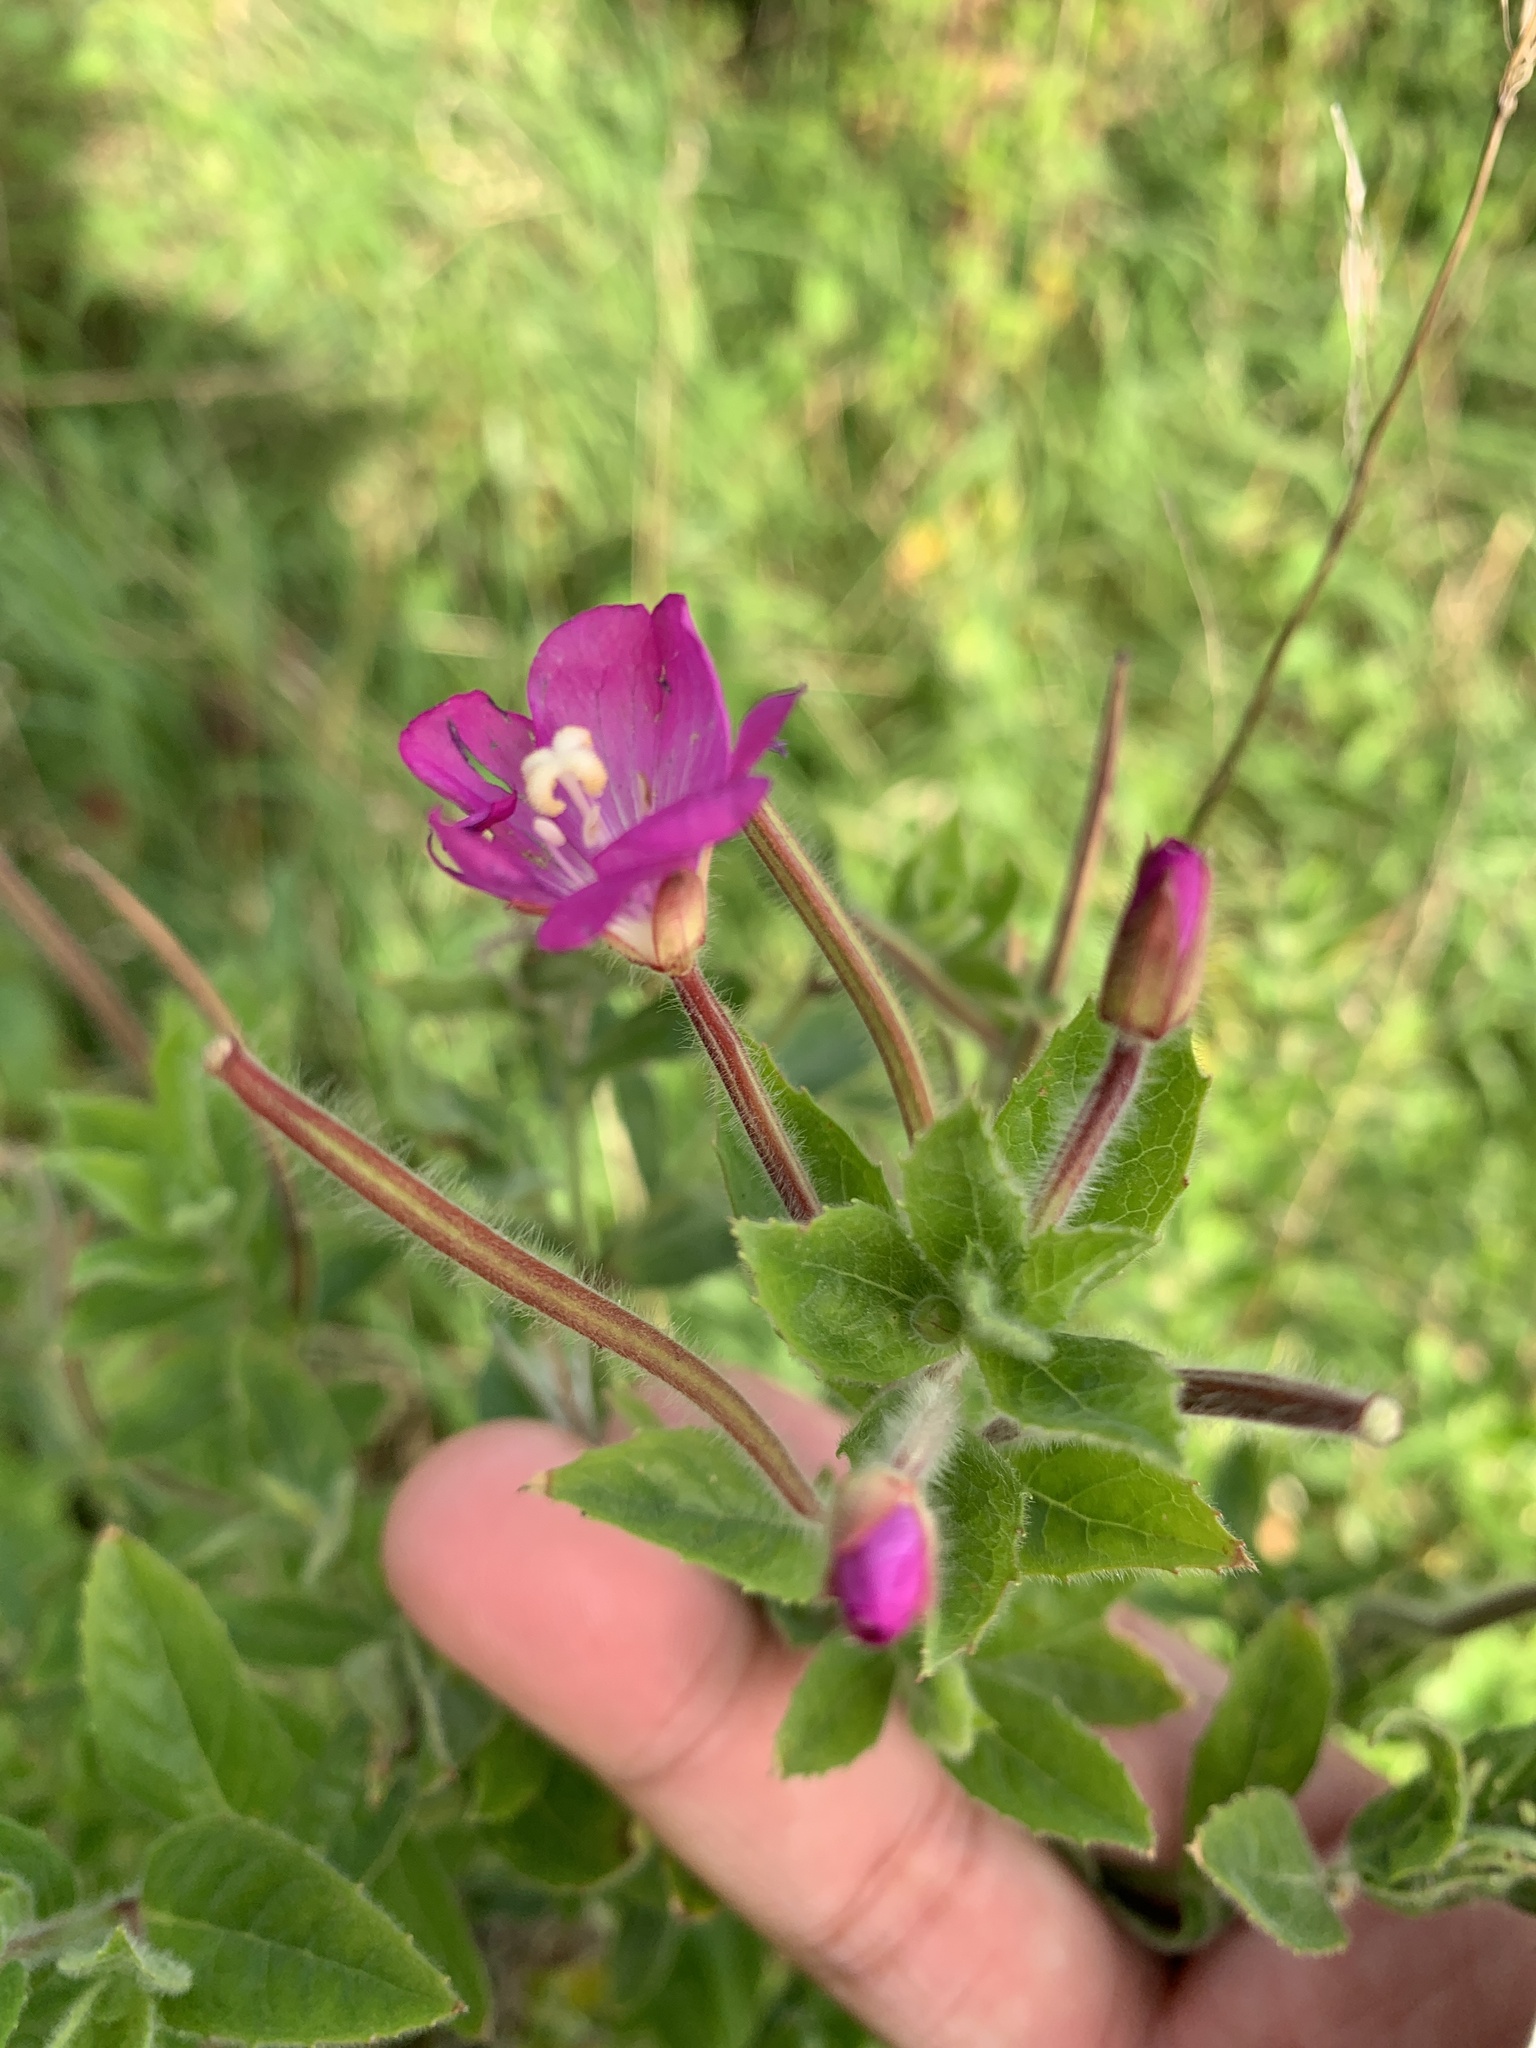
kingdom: Plantae
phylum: Tracheophyta
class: Magnoliopsida
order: Myrtales
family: Onagraceae
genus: Epilobium
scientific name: Epilobium hirsutum
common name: Great willowherb
